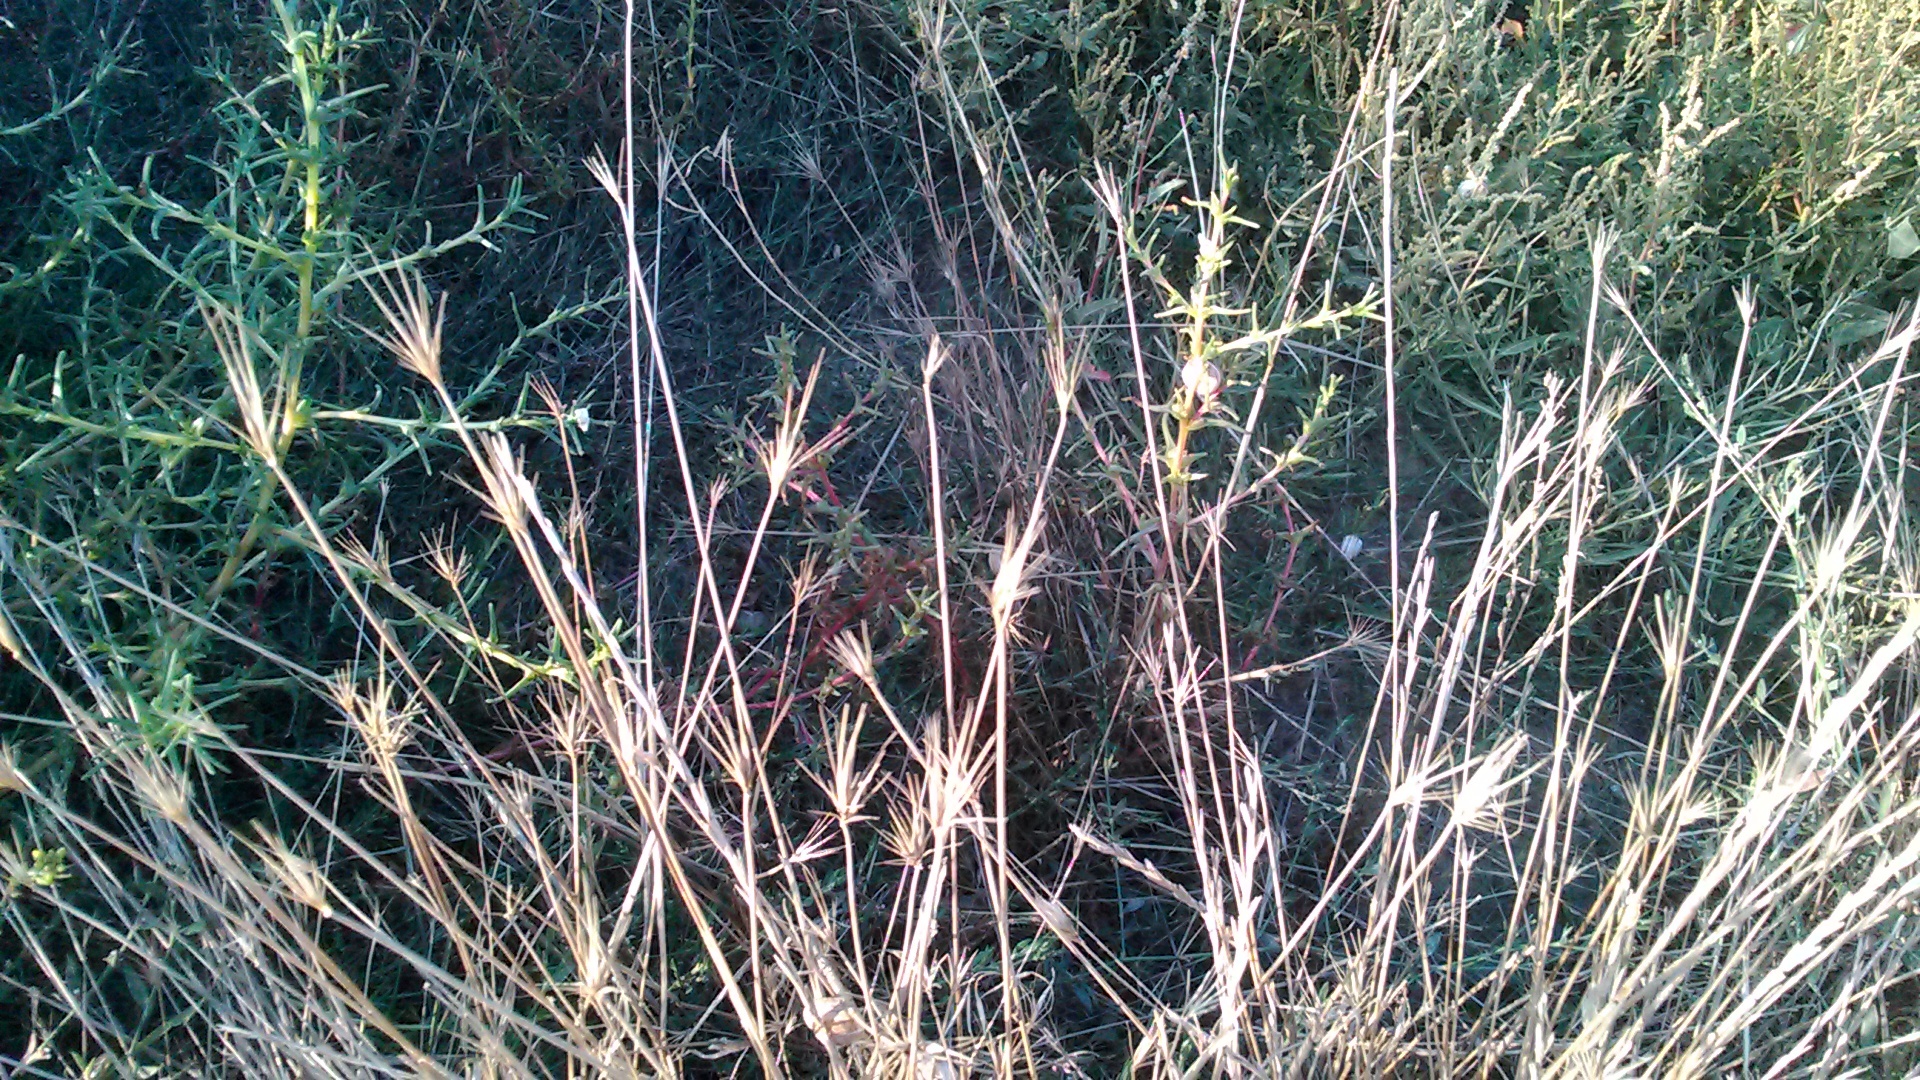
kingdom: Plantae
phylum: Tracheophyta
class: Liliopsida
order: Poales
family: Poaceae
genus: Hordeum
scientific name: Hordeum bulbosum
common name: Bulbous barley
